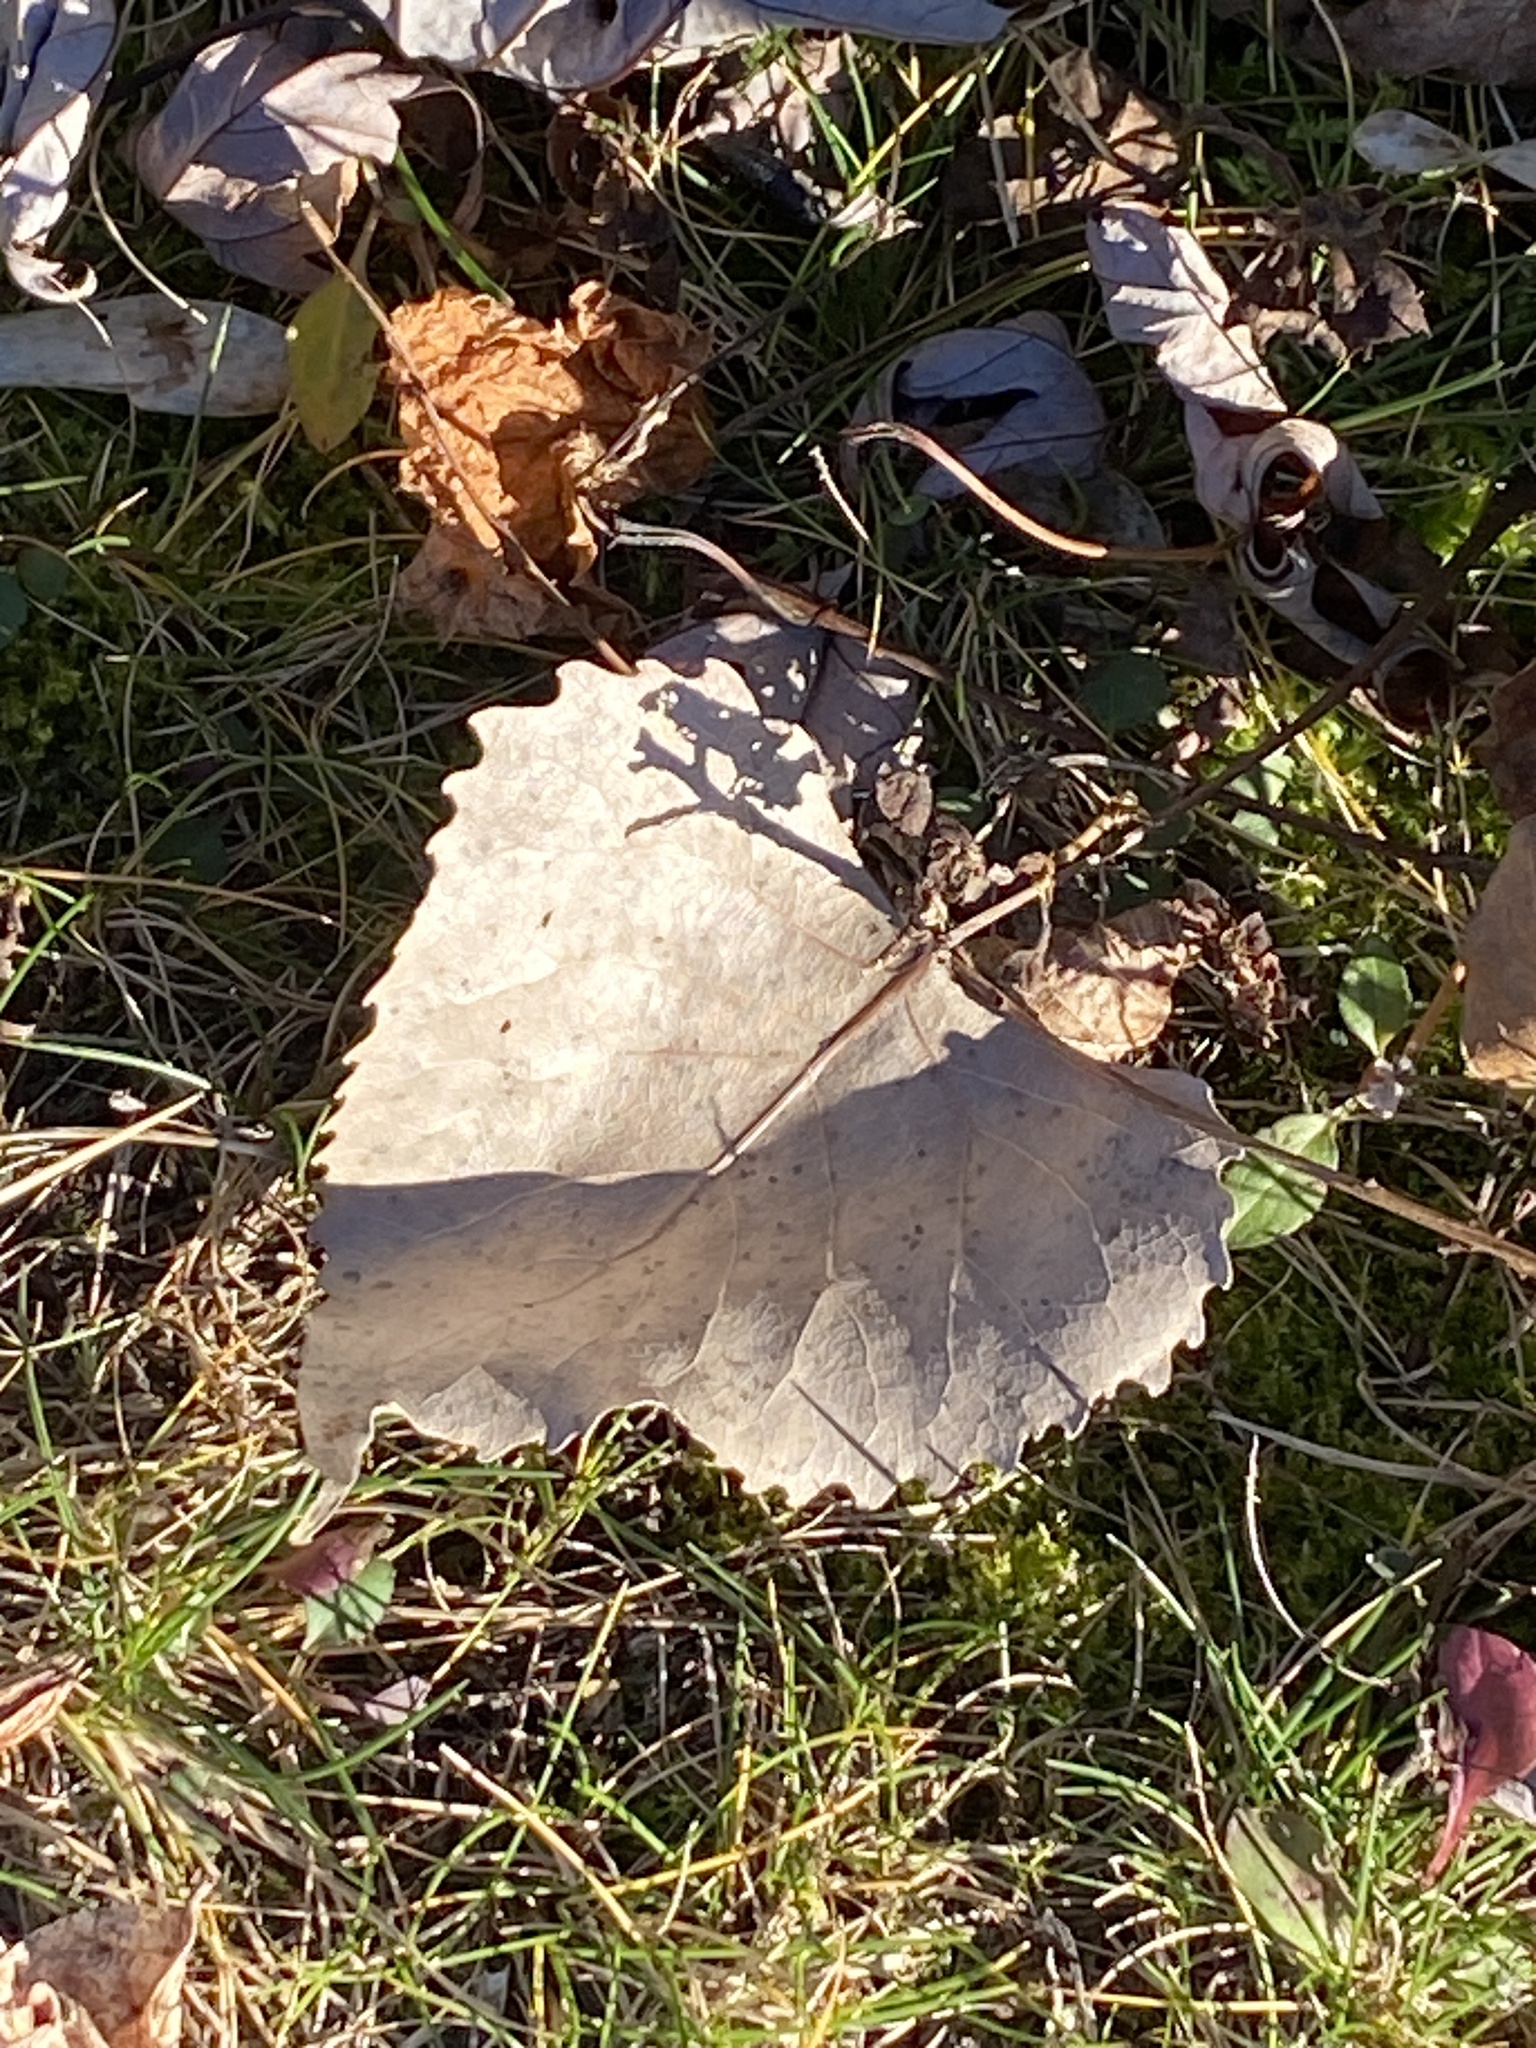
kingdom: Plantae
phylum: Tracheophyta
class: Magnoliopsida
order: Malpighiales
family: Salicaceae
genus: Populus
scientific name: Populus deltoides
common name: Eastern cottonwood
